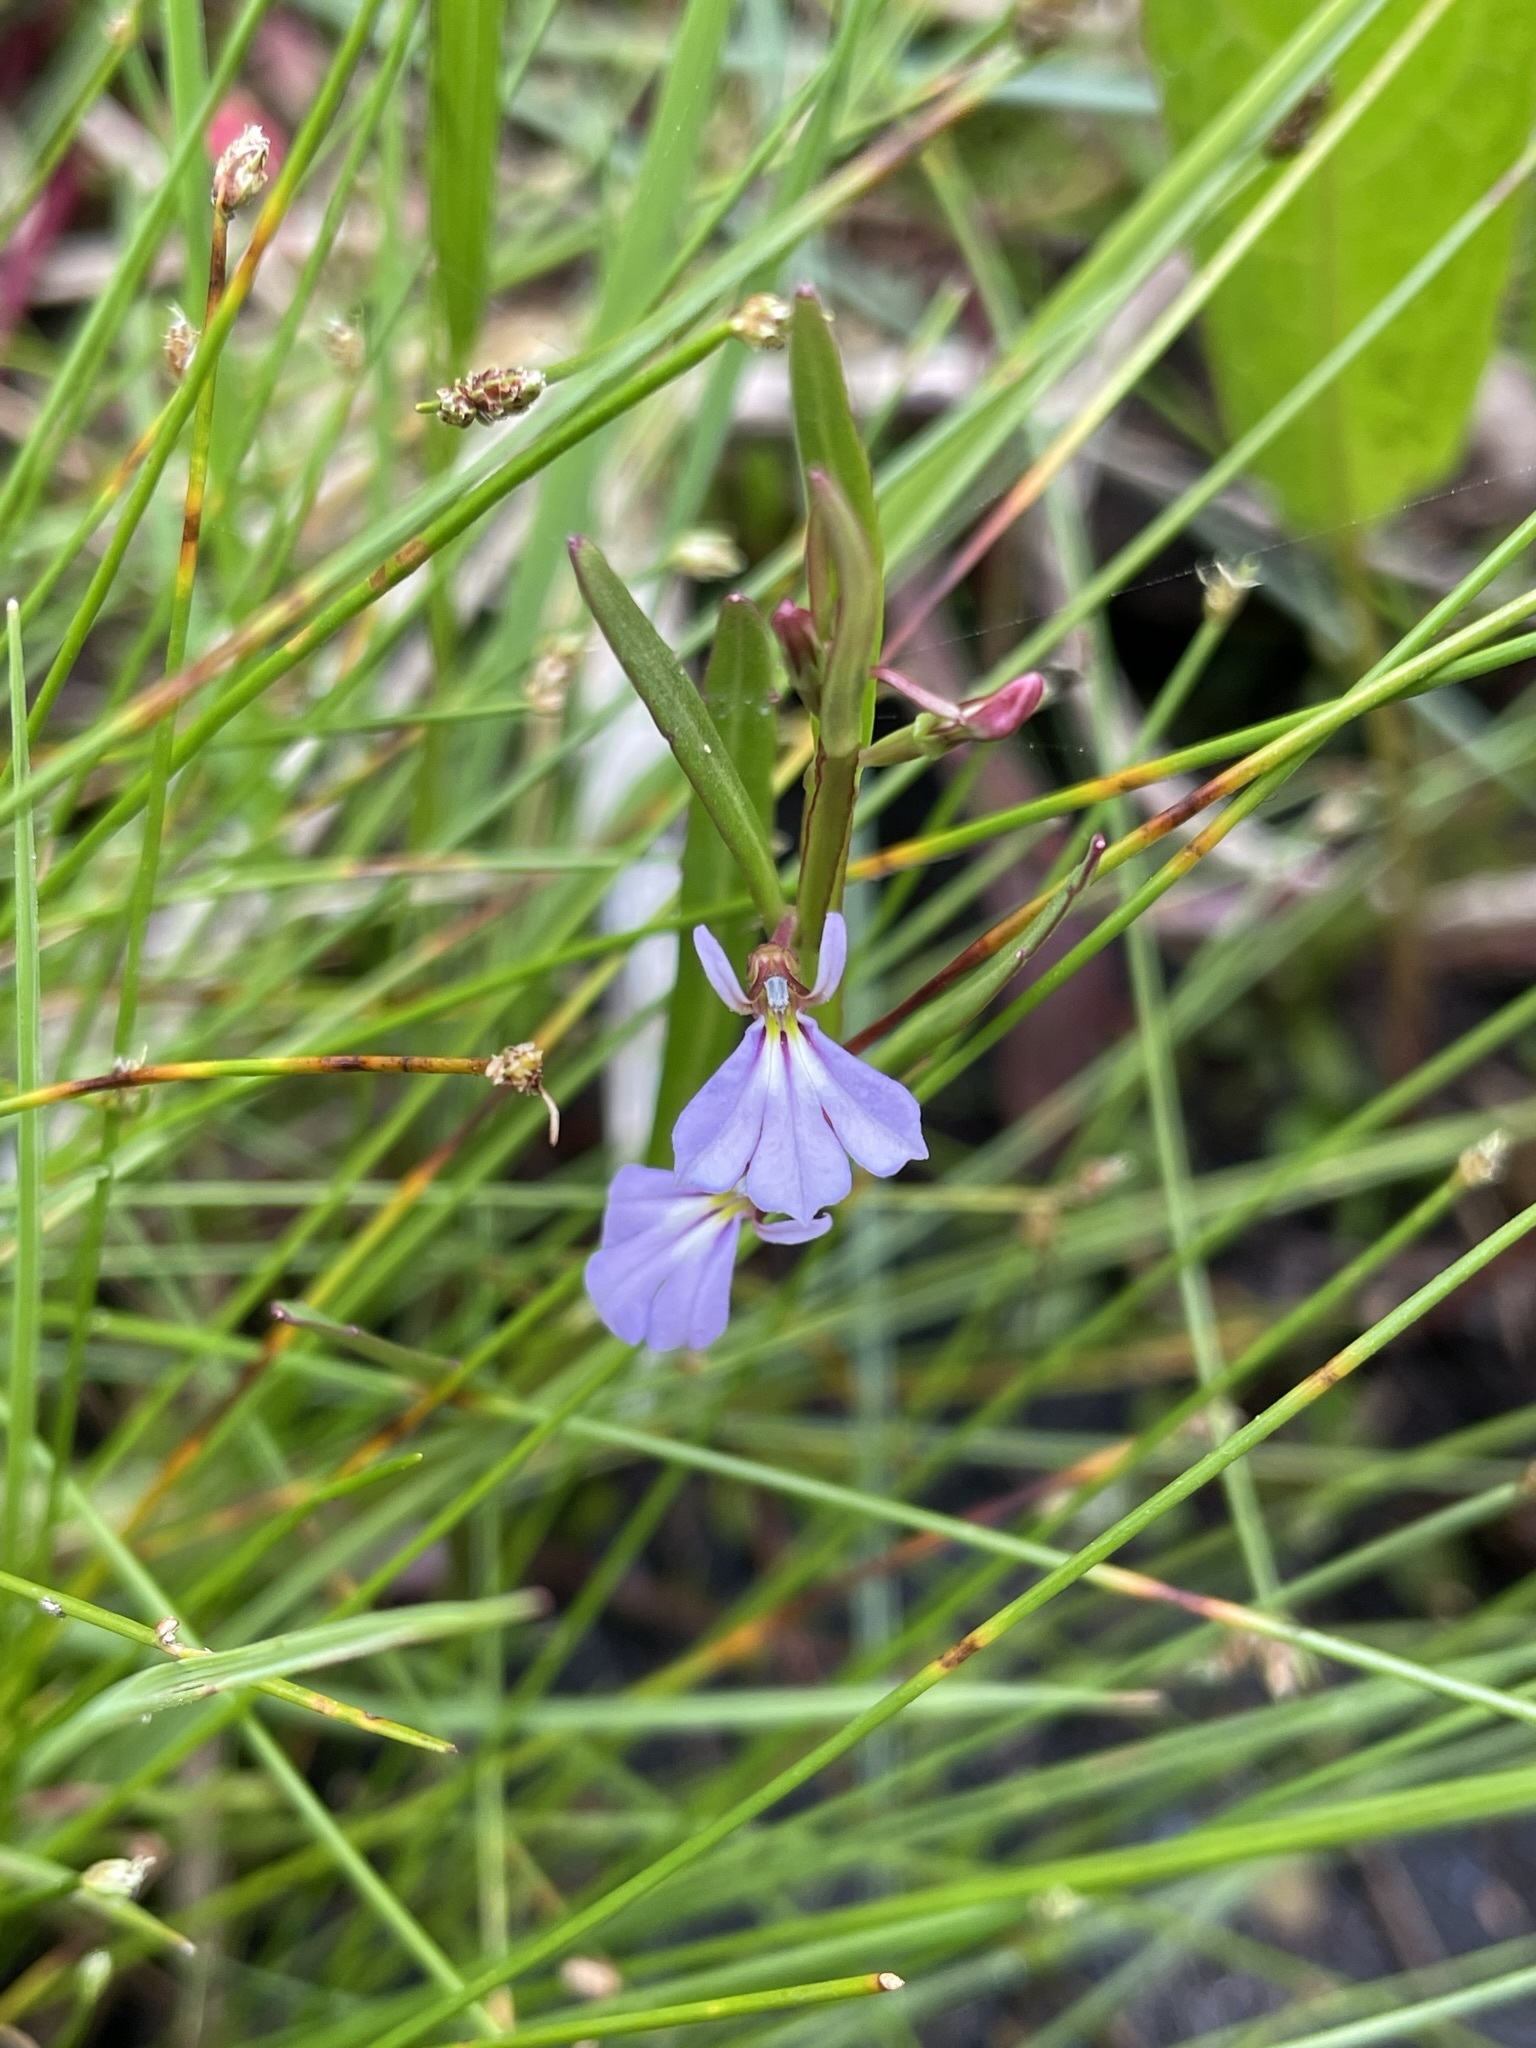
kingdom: Plantae
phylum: Tracheophyta
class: Magnoliopsida
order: Asterales
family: Campanulaceae
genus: Lobelia
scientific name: Lobelia anceps
